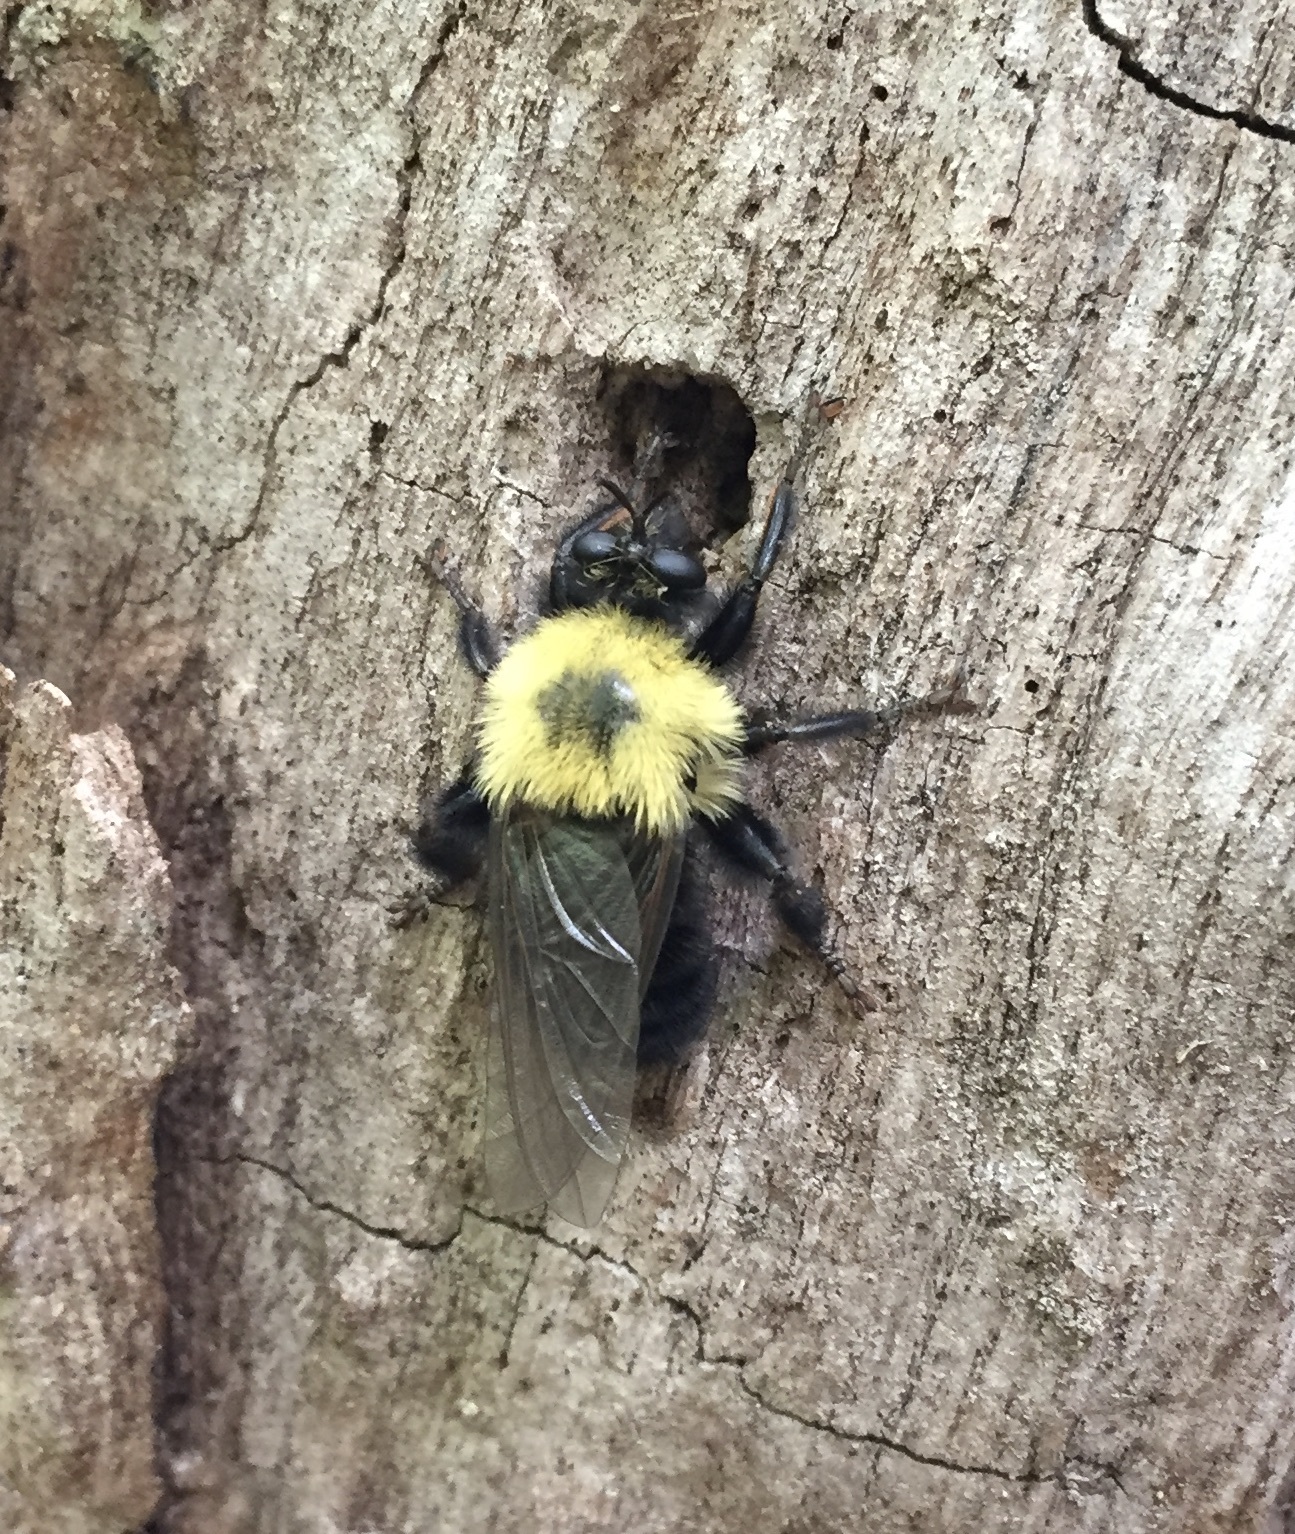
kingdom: Animalia
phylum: Arthropoda
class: Insecta
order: Diptera
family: Asilidae
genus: Laphria
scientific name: Laphria thoracica
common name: Bumble bee mimic robber fly
